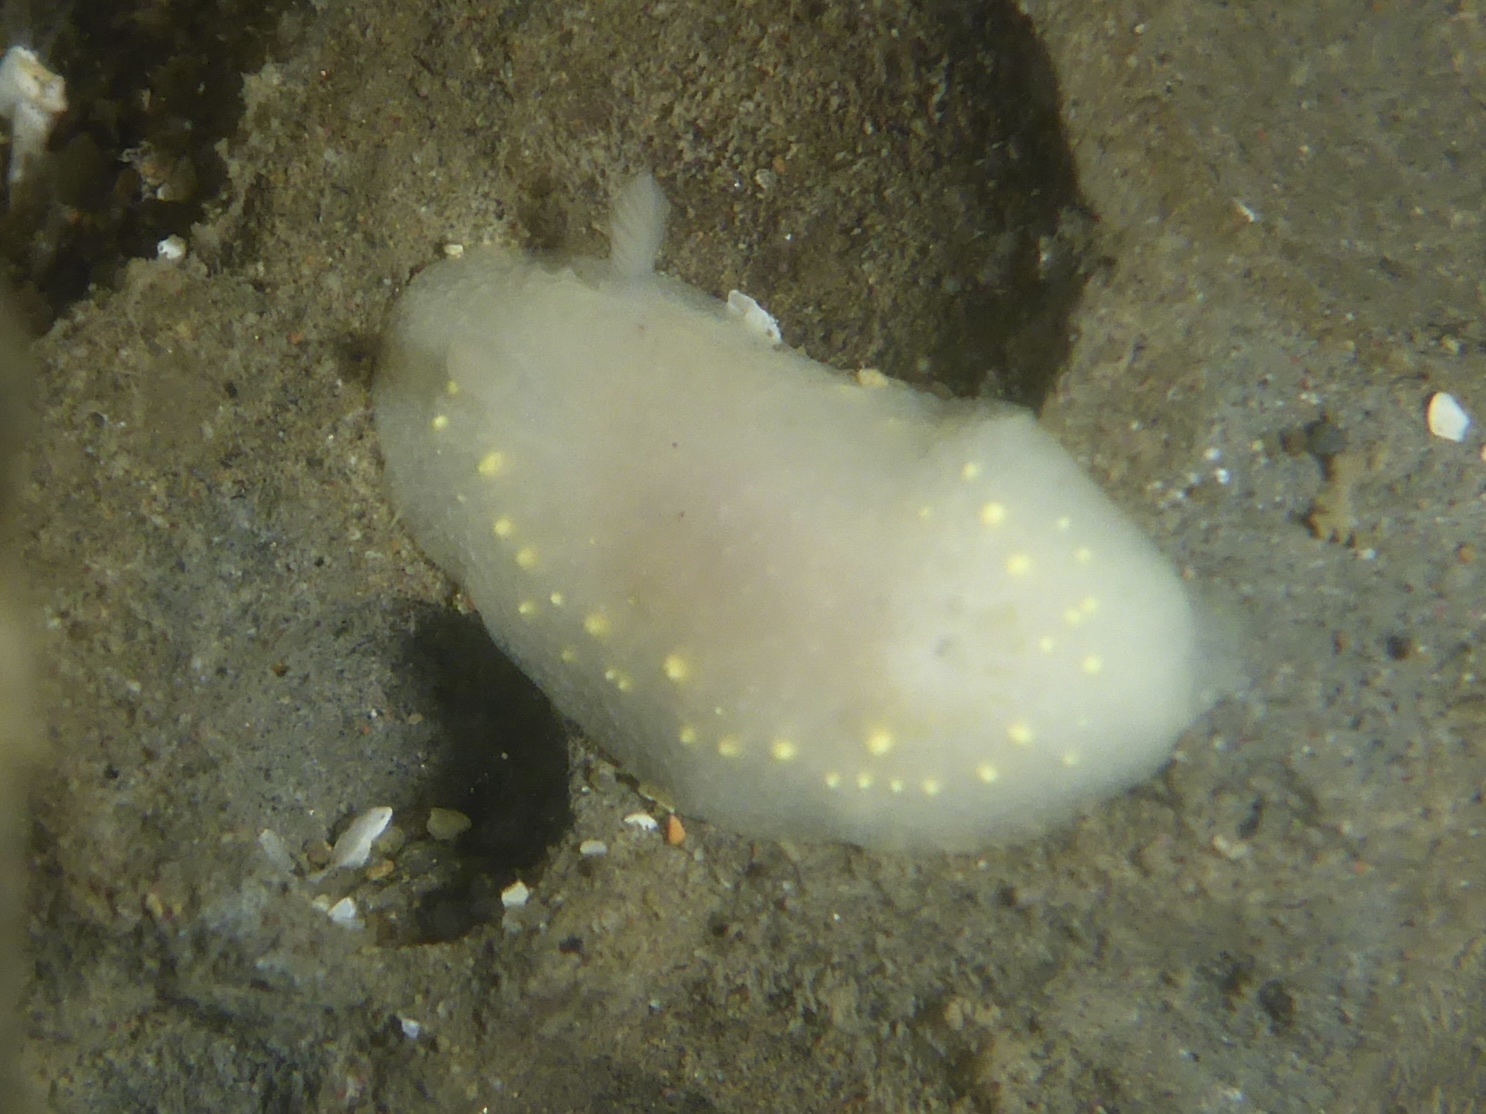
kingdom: Animalia
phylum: Mollusca
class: Gastropoda
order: Nudibranchia
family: Cadlinidae
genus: Cadlina
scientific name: Cadlina modesta
